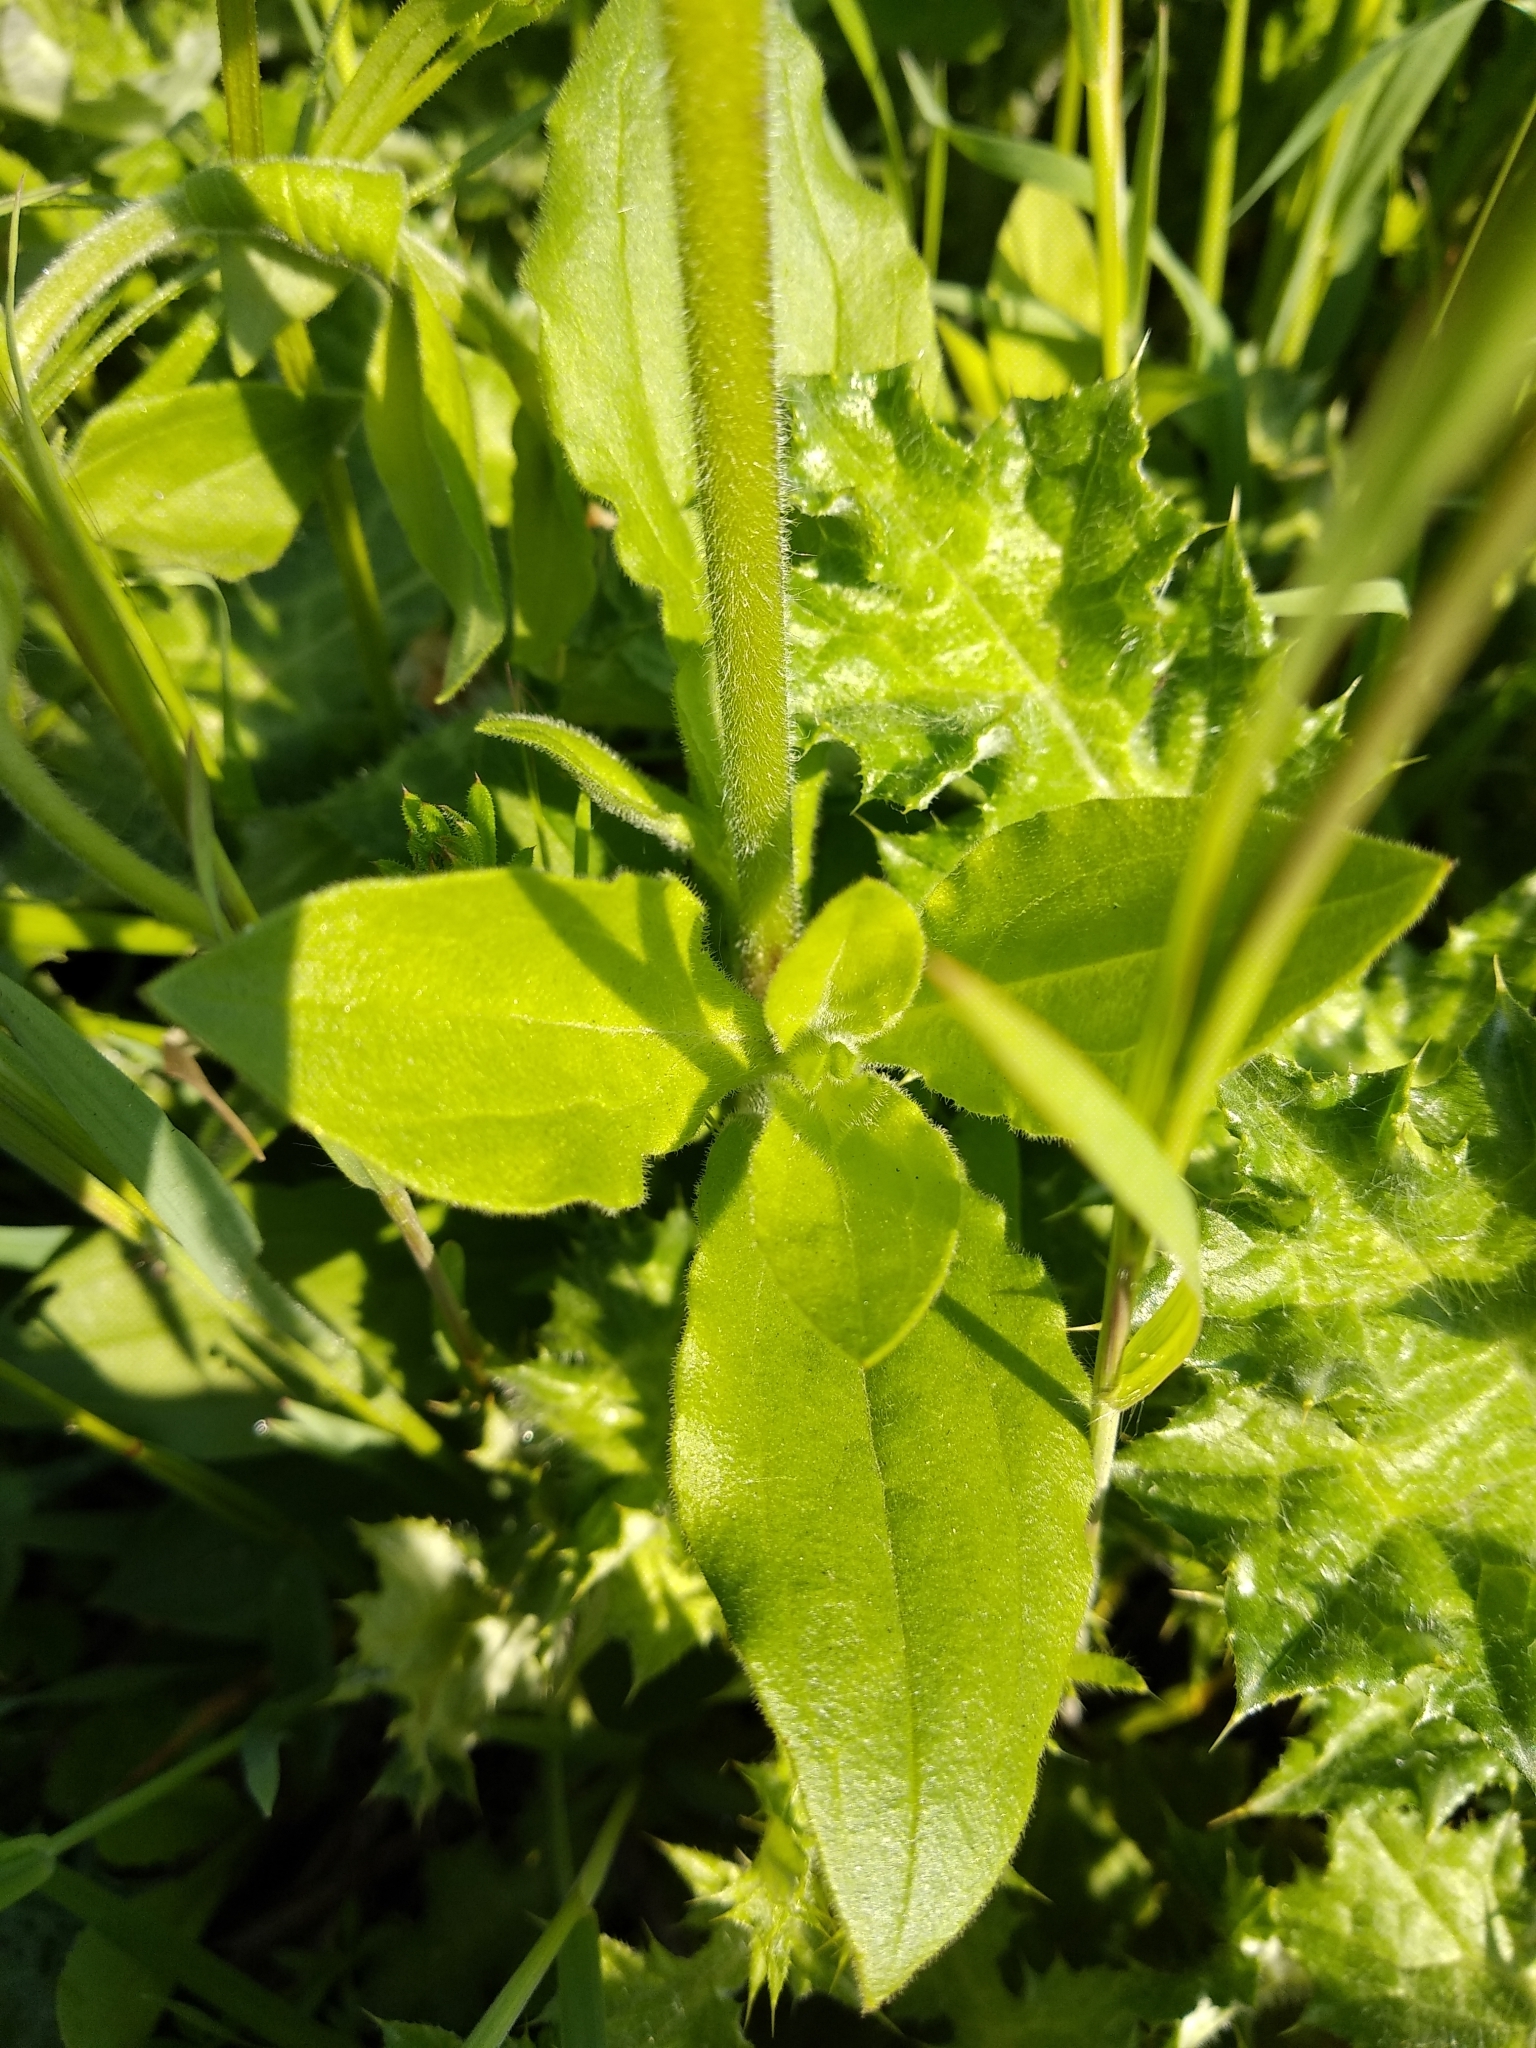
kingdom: Plantae
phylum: Tracheophyta
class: Magnoliopsida
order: Caryophyllales
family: Caryophyllaceae
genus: Silene
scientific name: Silene latifolia
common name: White campion
